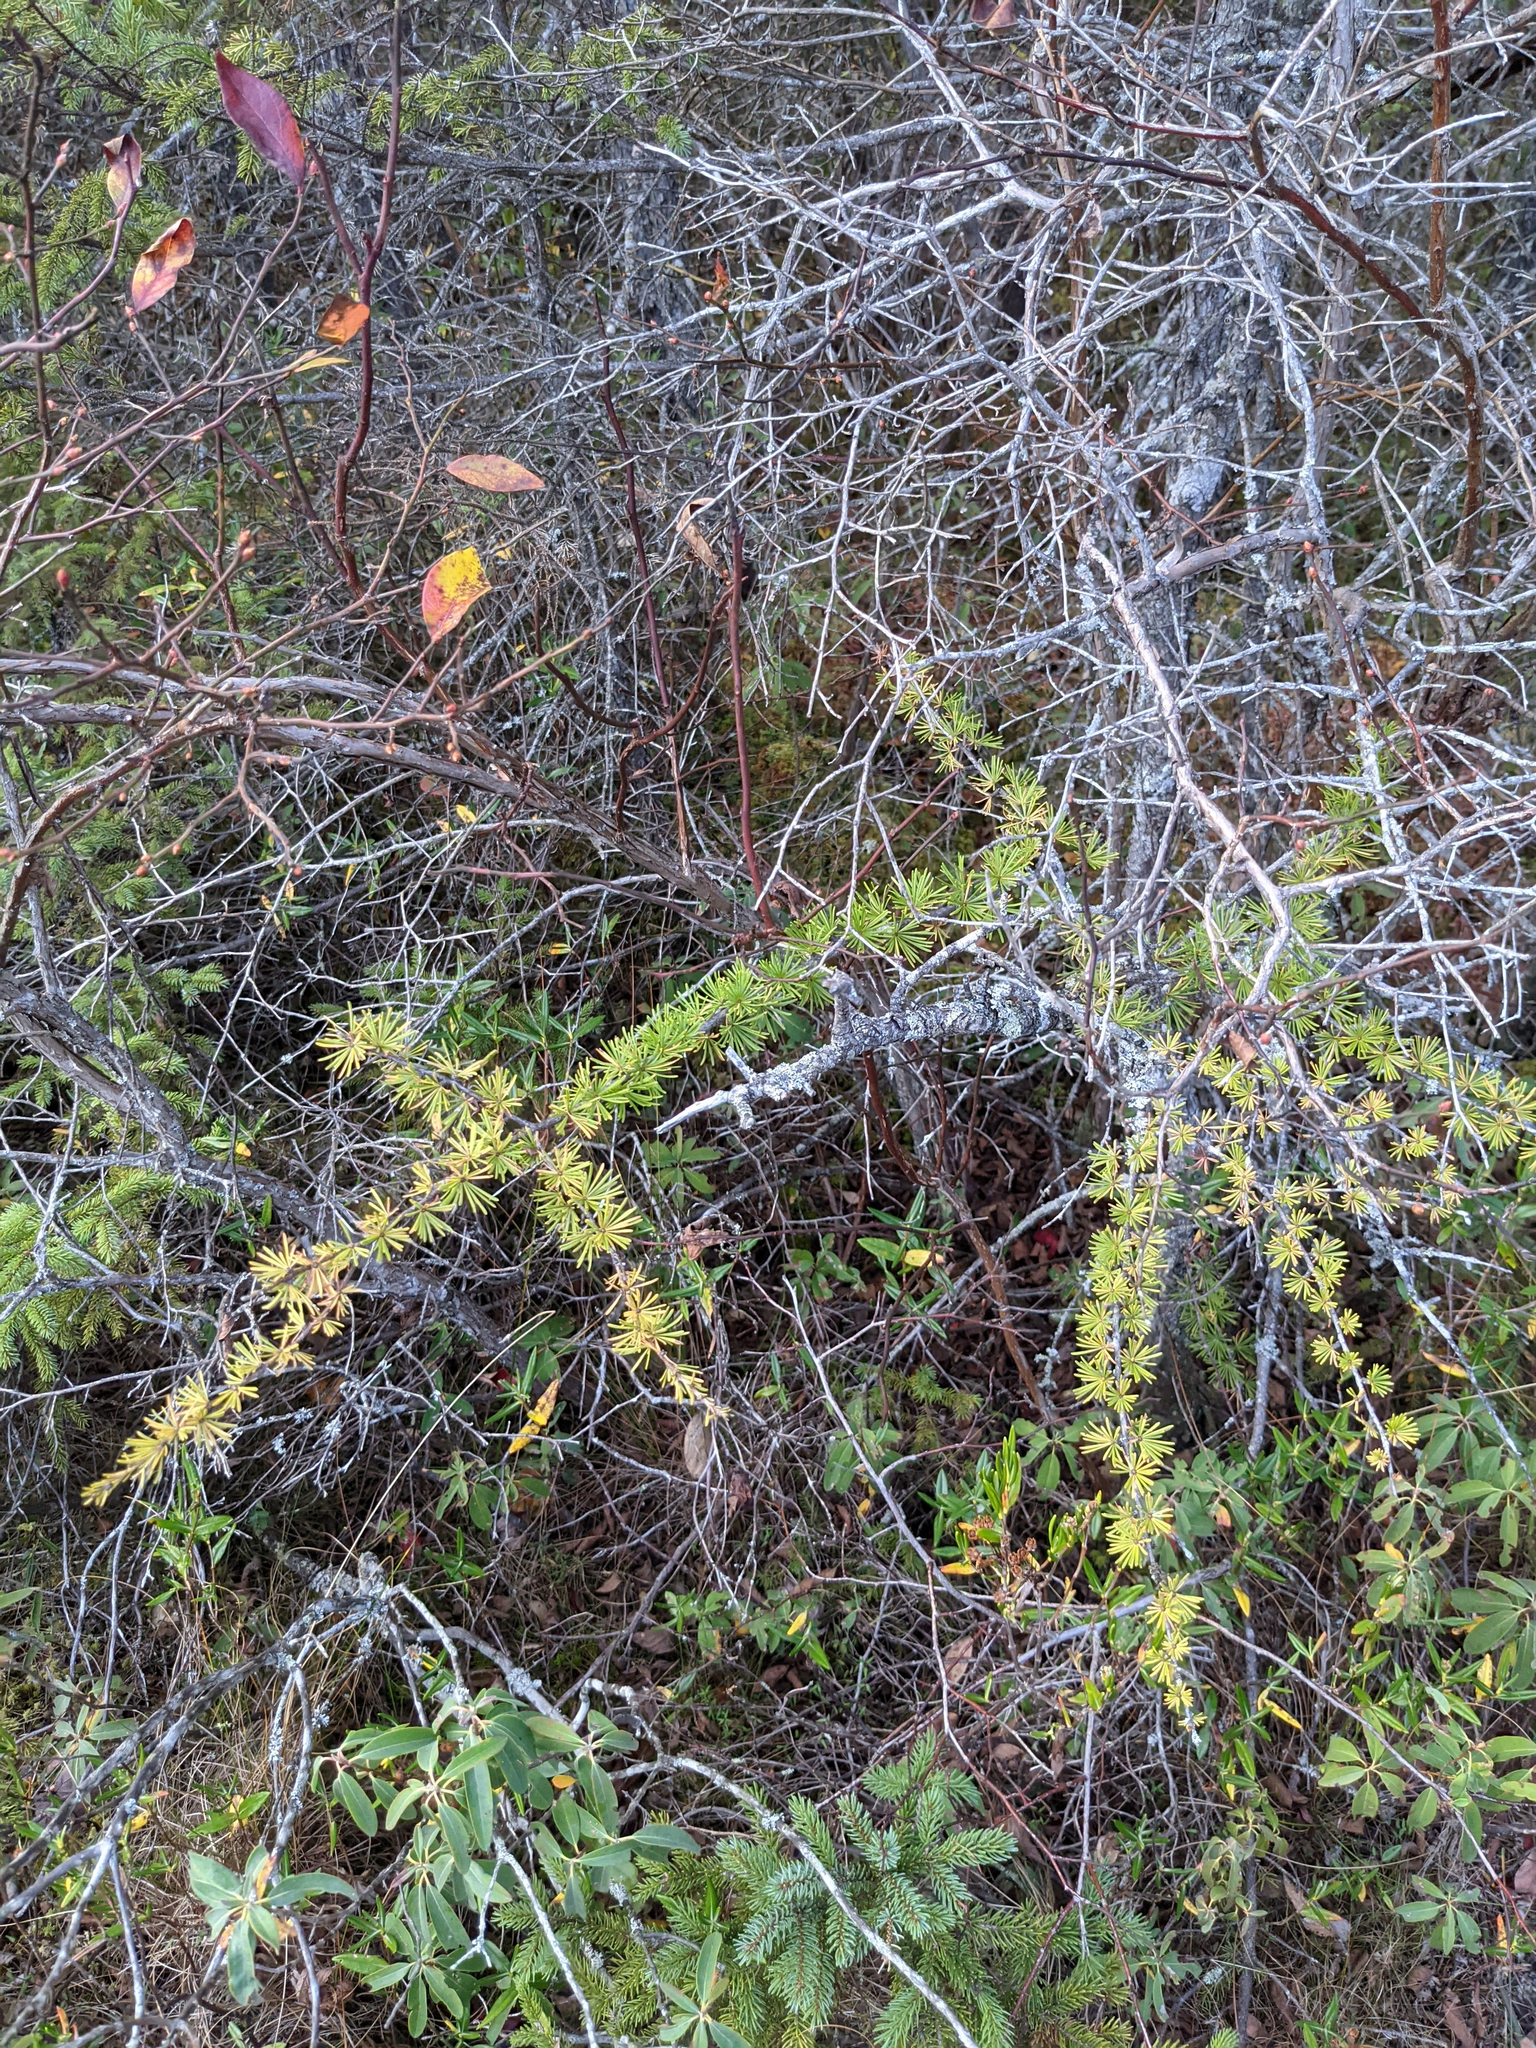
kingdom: Plantae
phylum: Tracheophyta
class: Pinopsida
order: Pinales
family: Pinaceae
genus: Larix
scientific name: Larix laricina
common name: American larch
